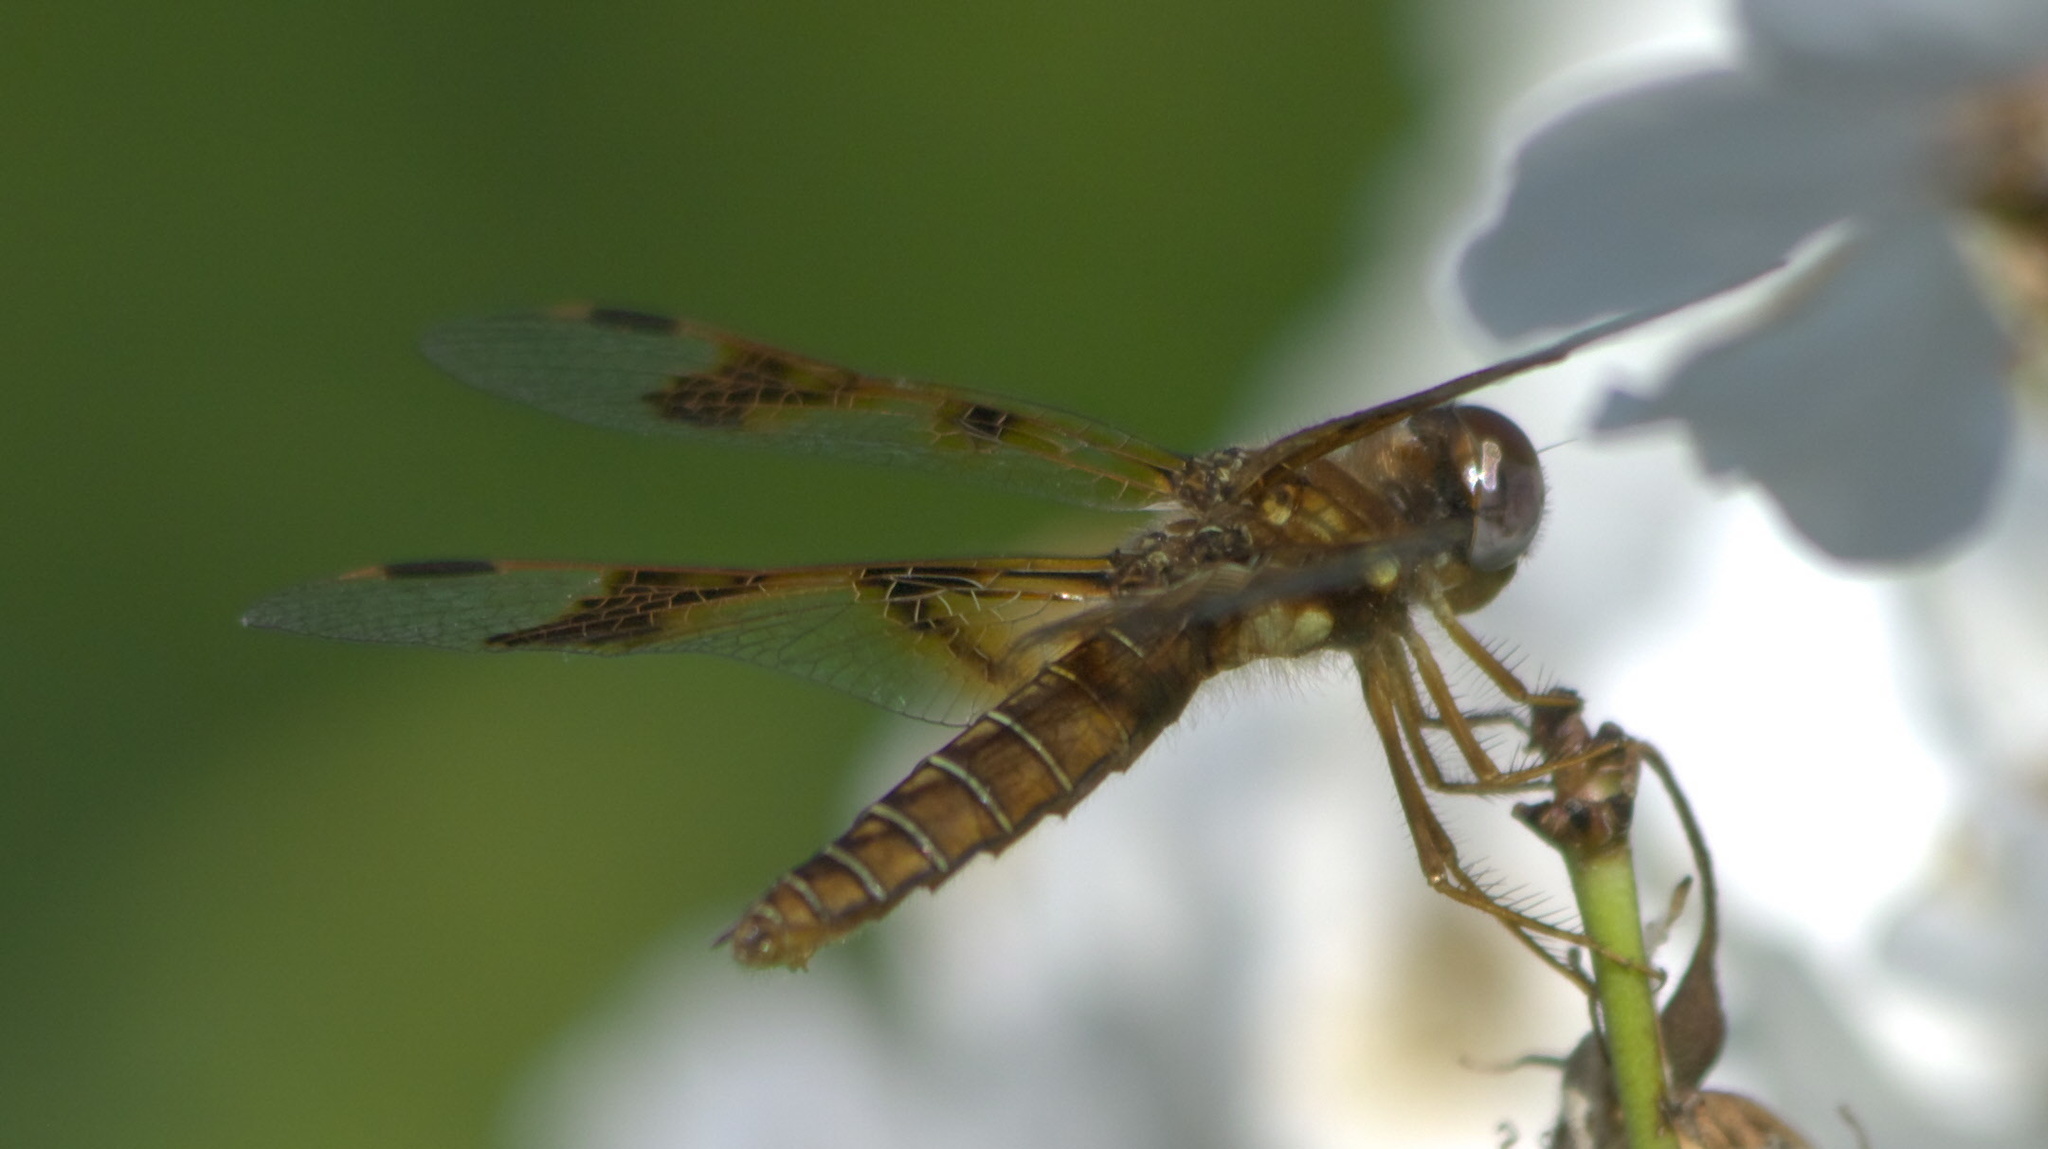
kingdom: Animalia
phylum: Arthropoda
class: Insecta
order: Odonata
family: Libellulidae
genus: Perithemis
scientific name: Perithemis tenera
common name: Eastern amberwing
